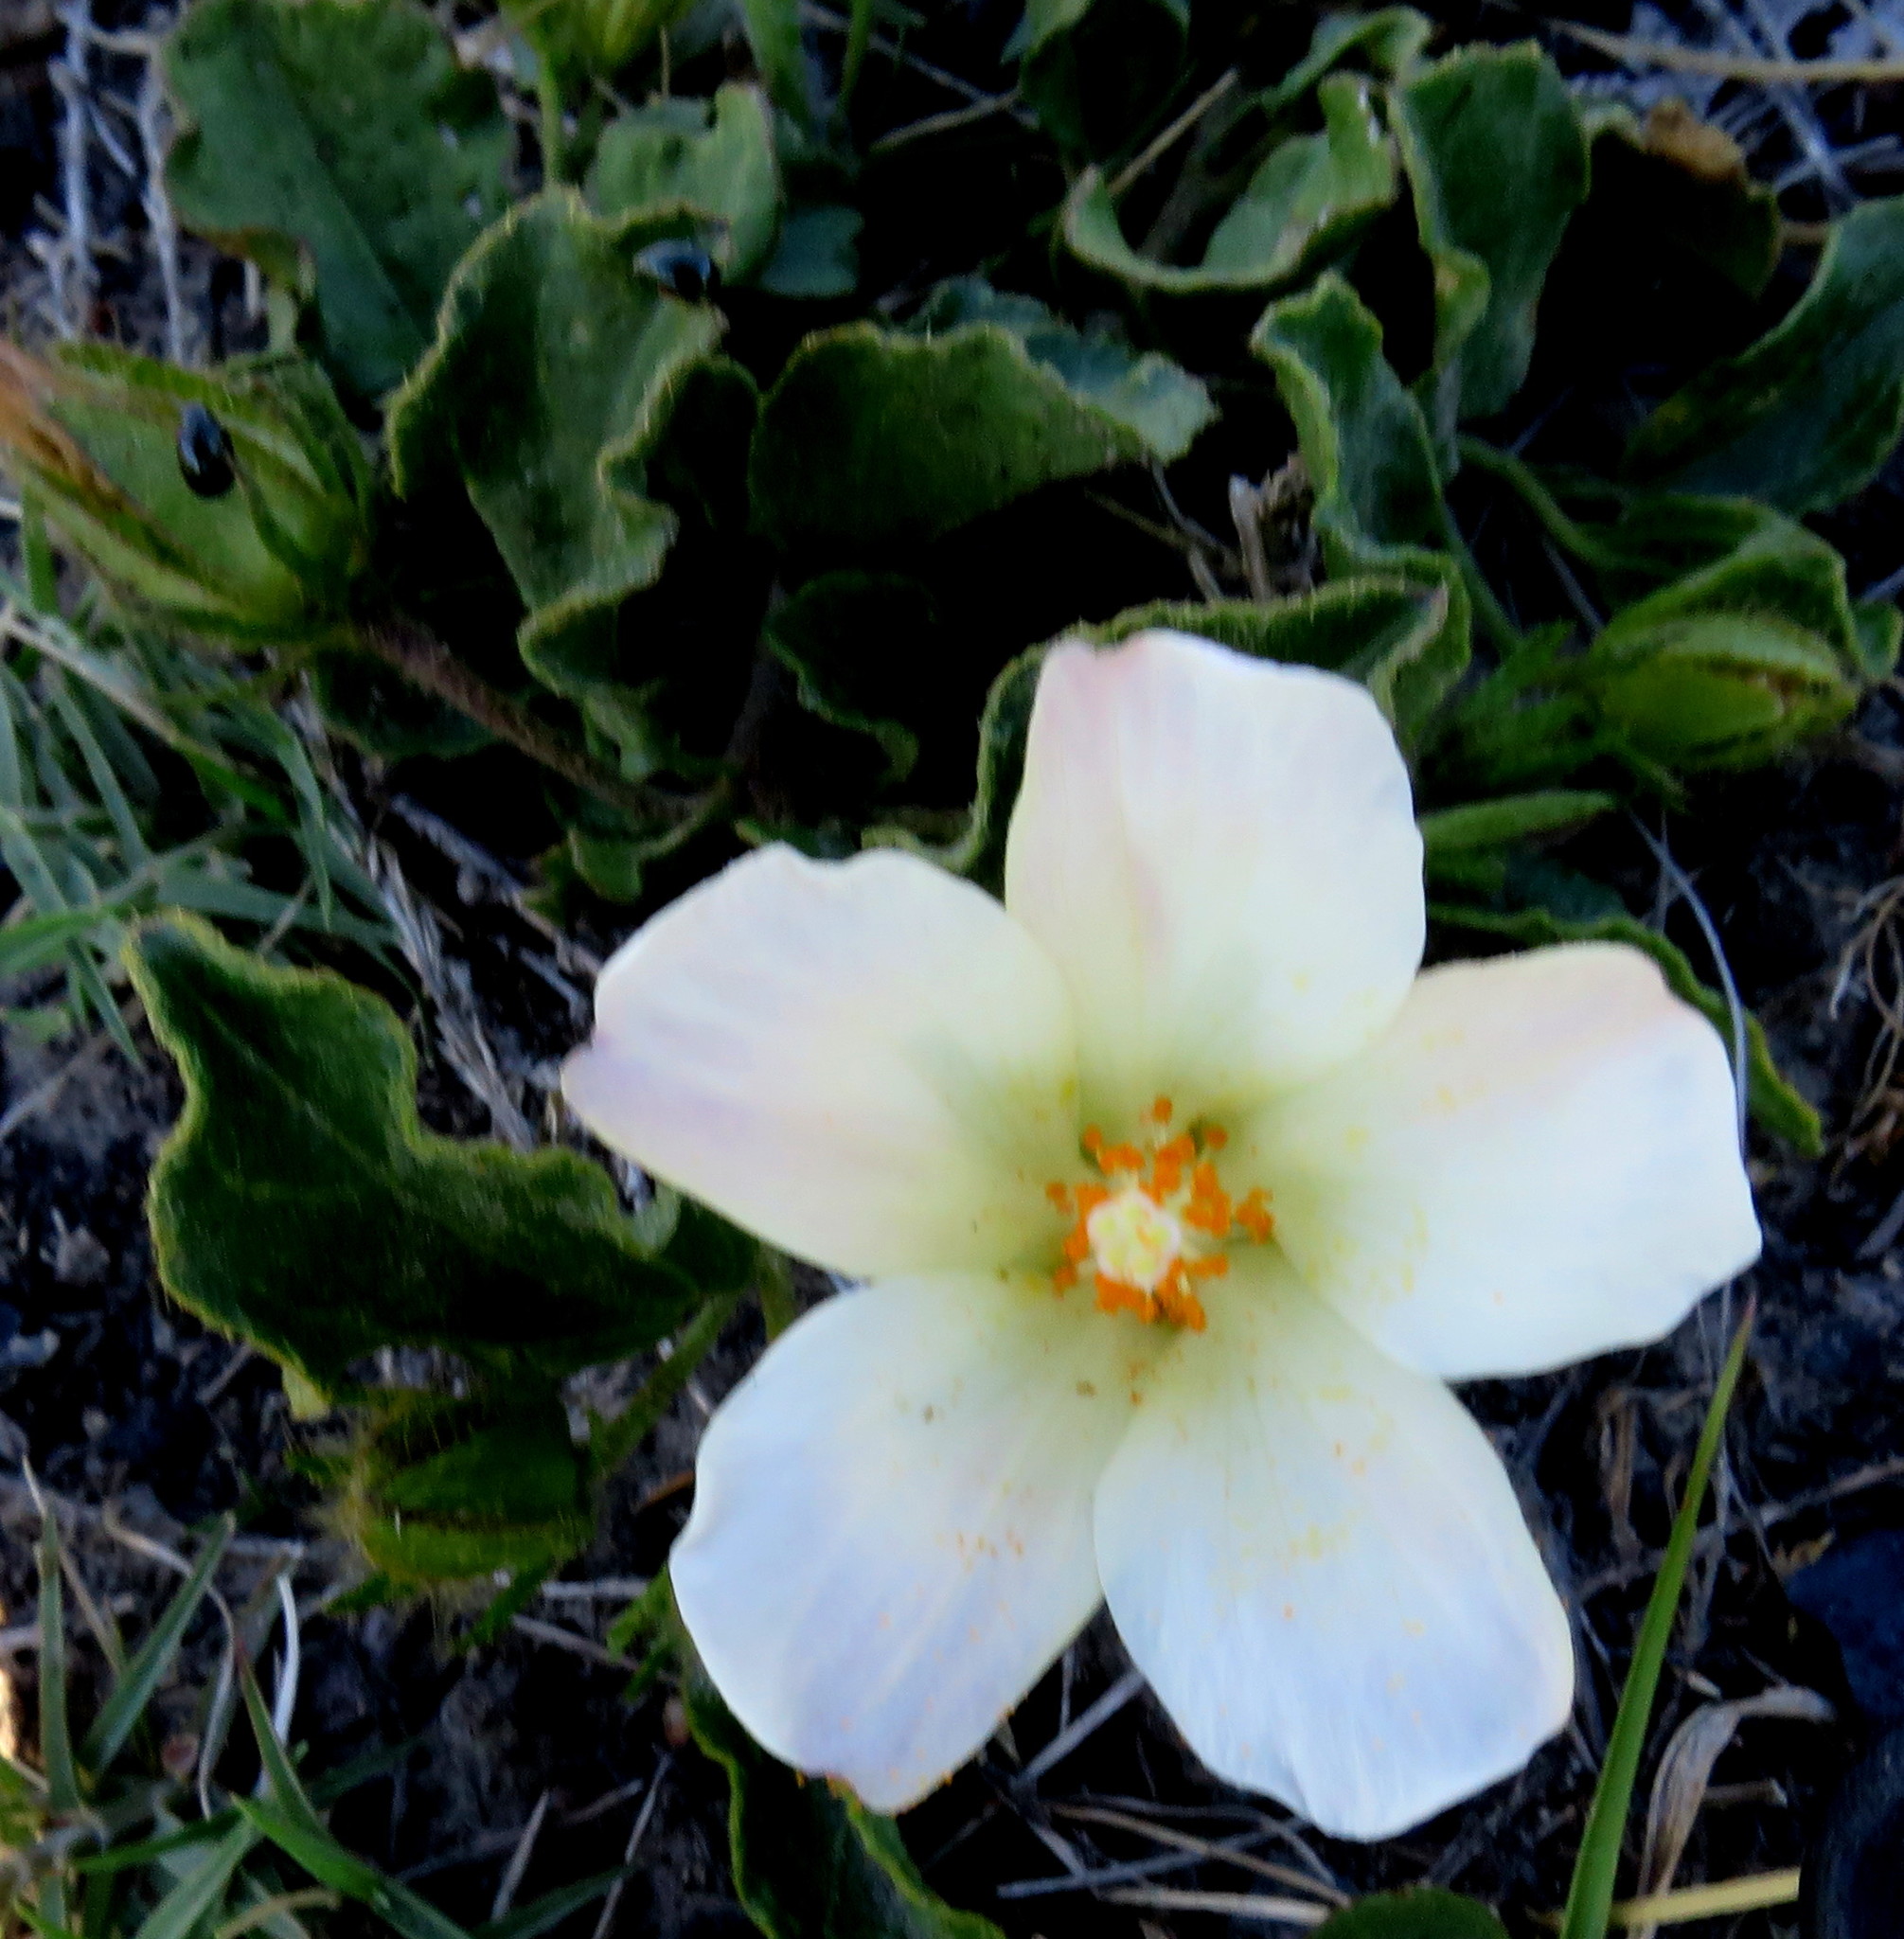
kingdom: Plantae
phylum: Tracheophyta
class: Magnoliopsida
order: Malvales
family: Malvaceae
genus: Hibiscus
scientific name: Hibiscus aethiopicus
